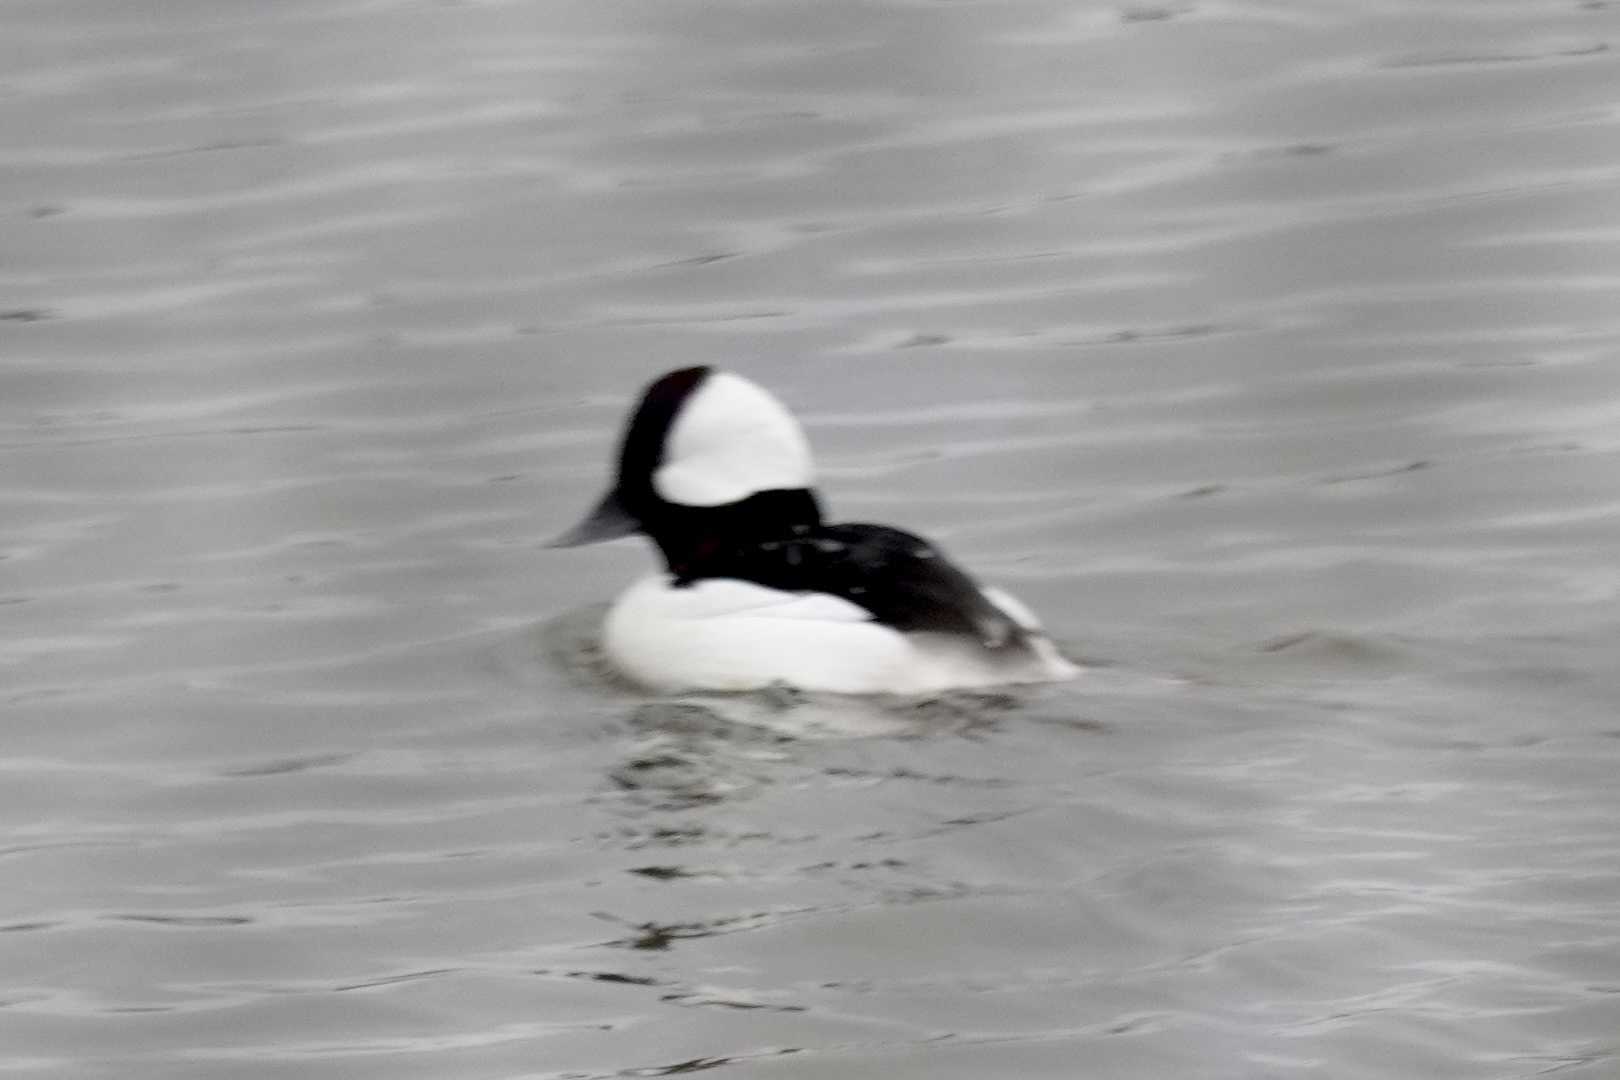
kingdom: Animalia
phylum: Chordata
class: Aves
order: Anseriformes
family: Anatidae
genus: Bucephala
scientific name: Bucephala albeola
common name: Bufflehead
